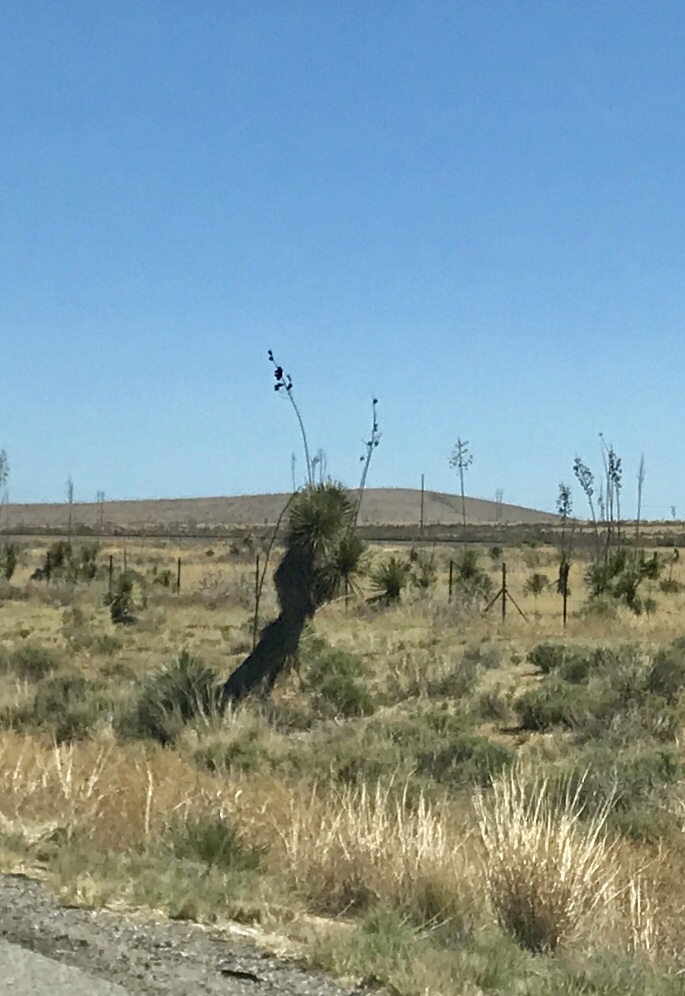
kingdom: Plantae
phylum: Tracheophyta
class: Liliopsida
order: Asparagales
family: Asparagaceae
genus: Yucca
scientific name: Yucca elata
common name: Palmella
